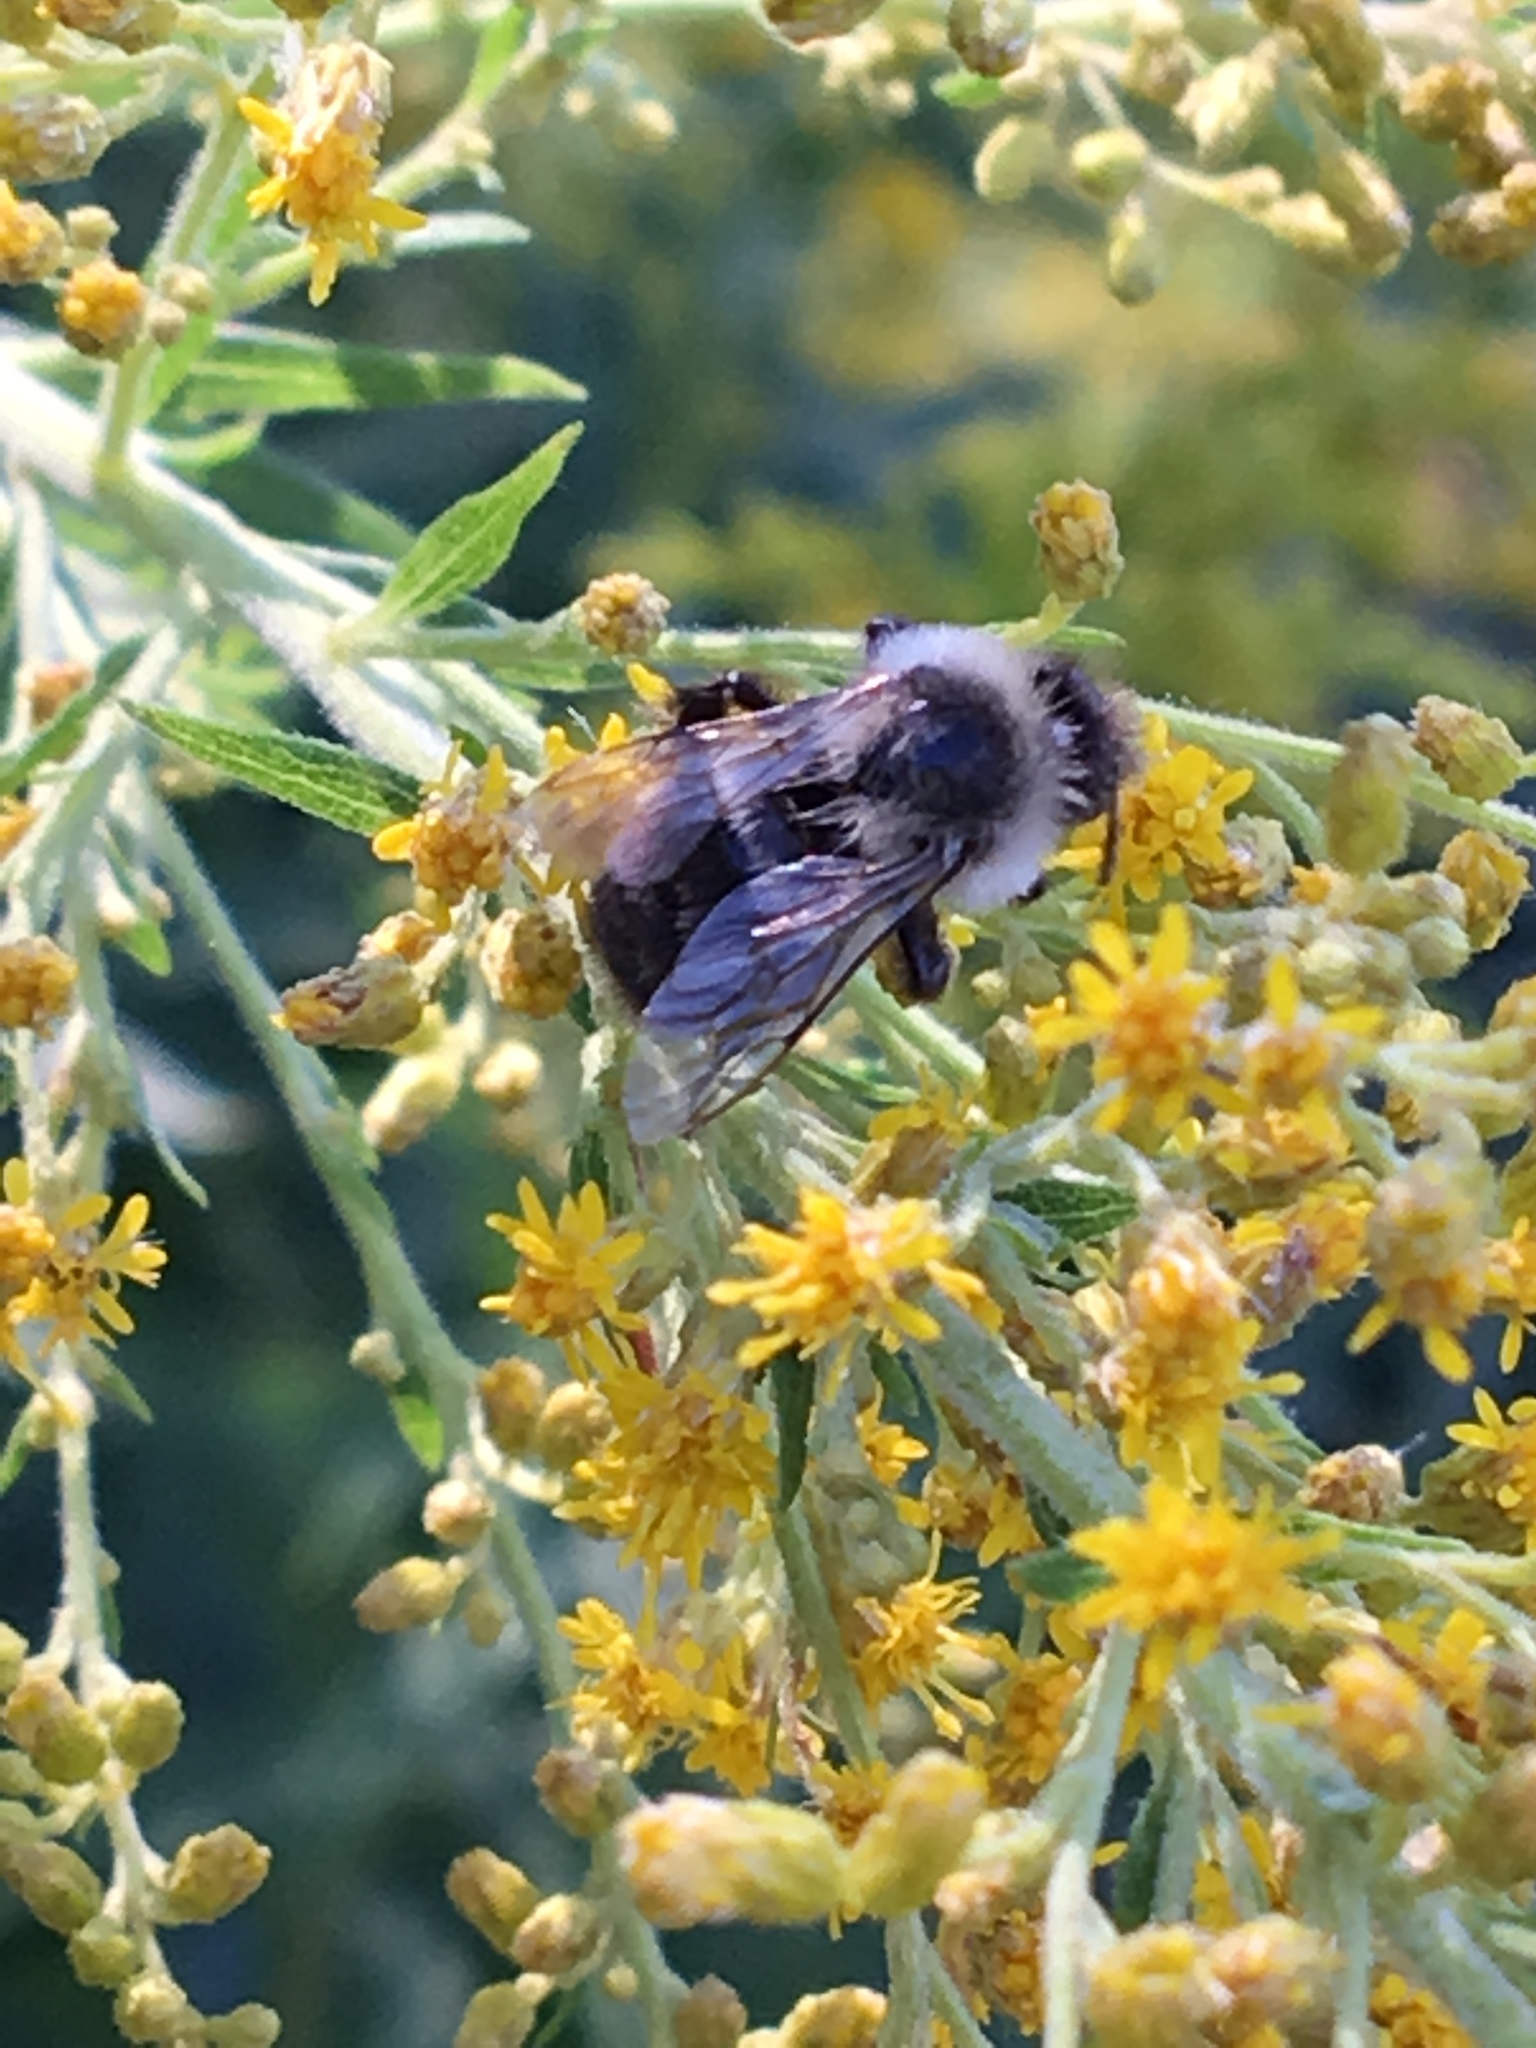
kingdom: Animalia
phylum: Arthropoda
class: Insecta
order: Hymenoptera
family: Apidae
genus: Bombus
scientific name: Bombus impatiens
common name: Common eastern bumble bee
